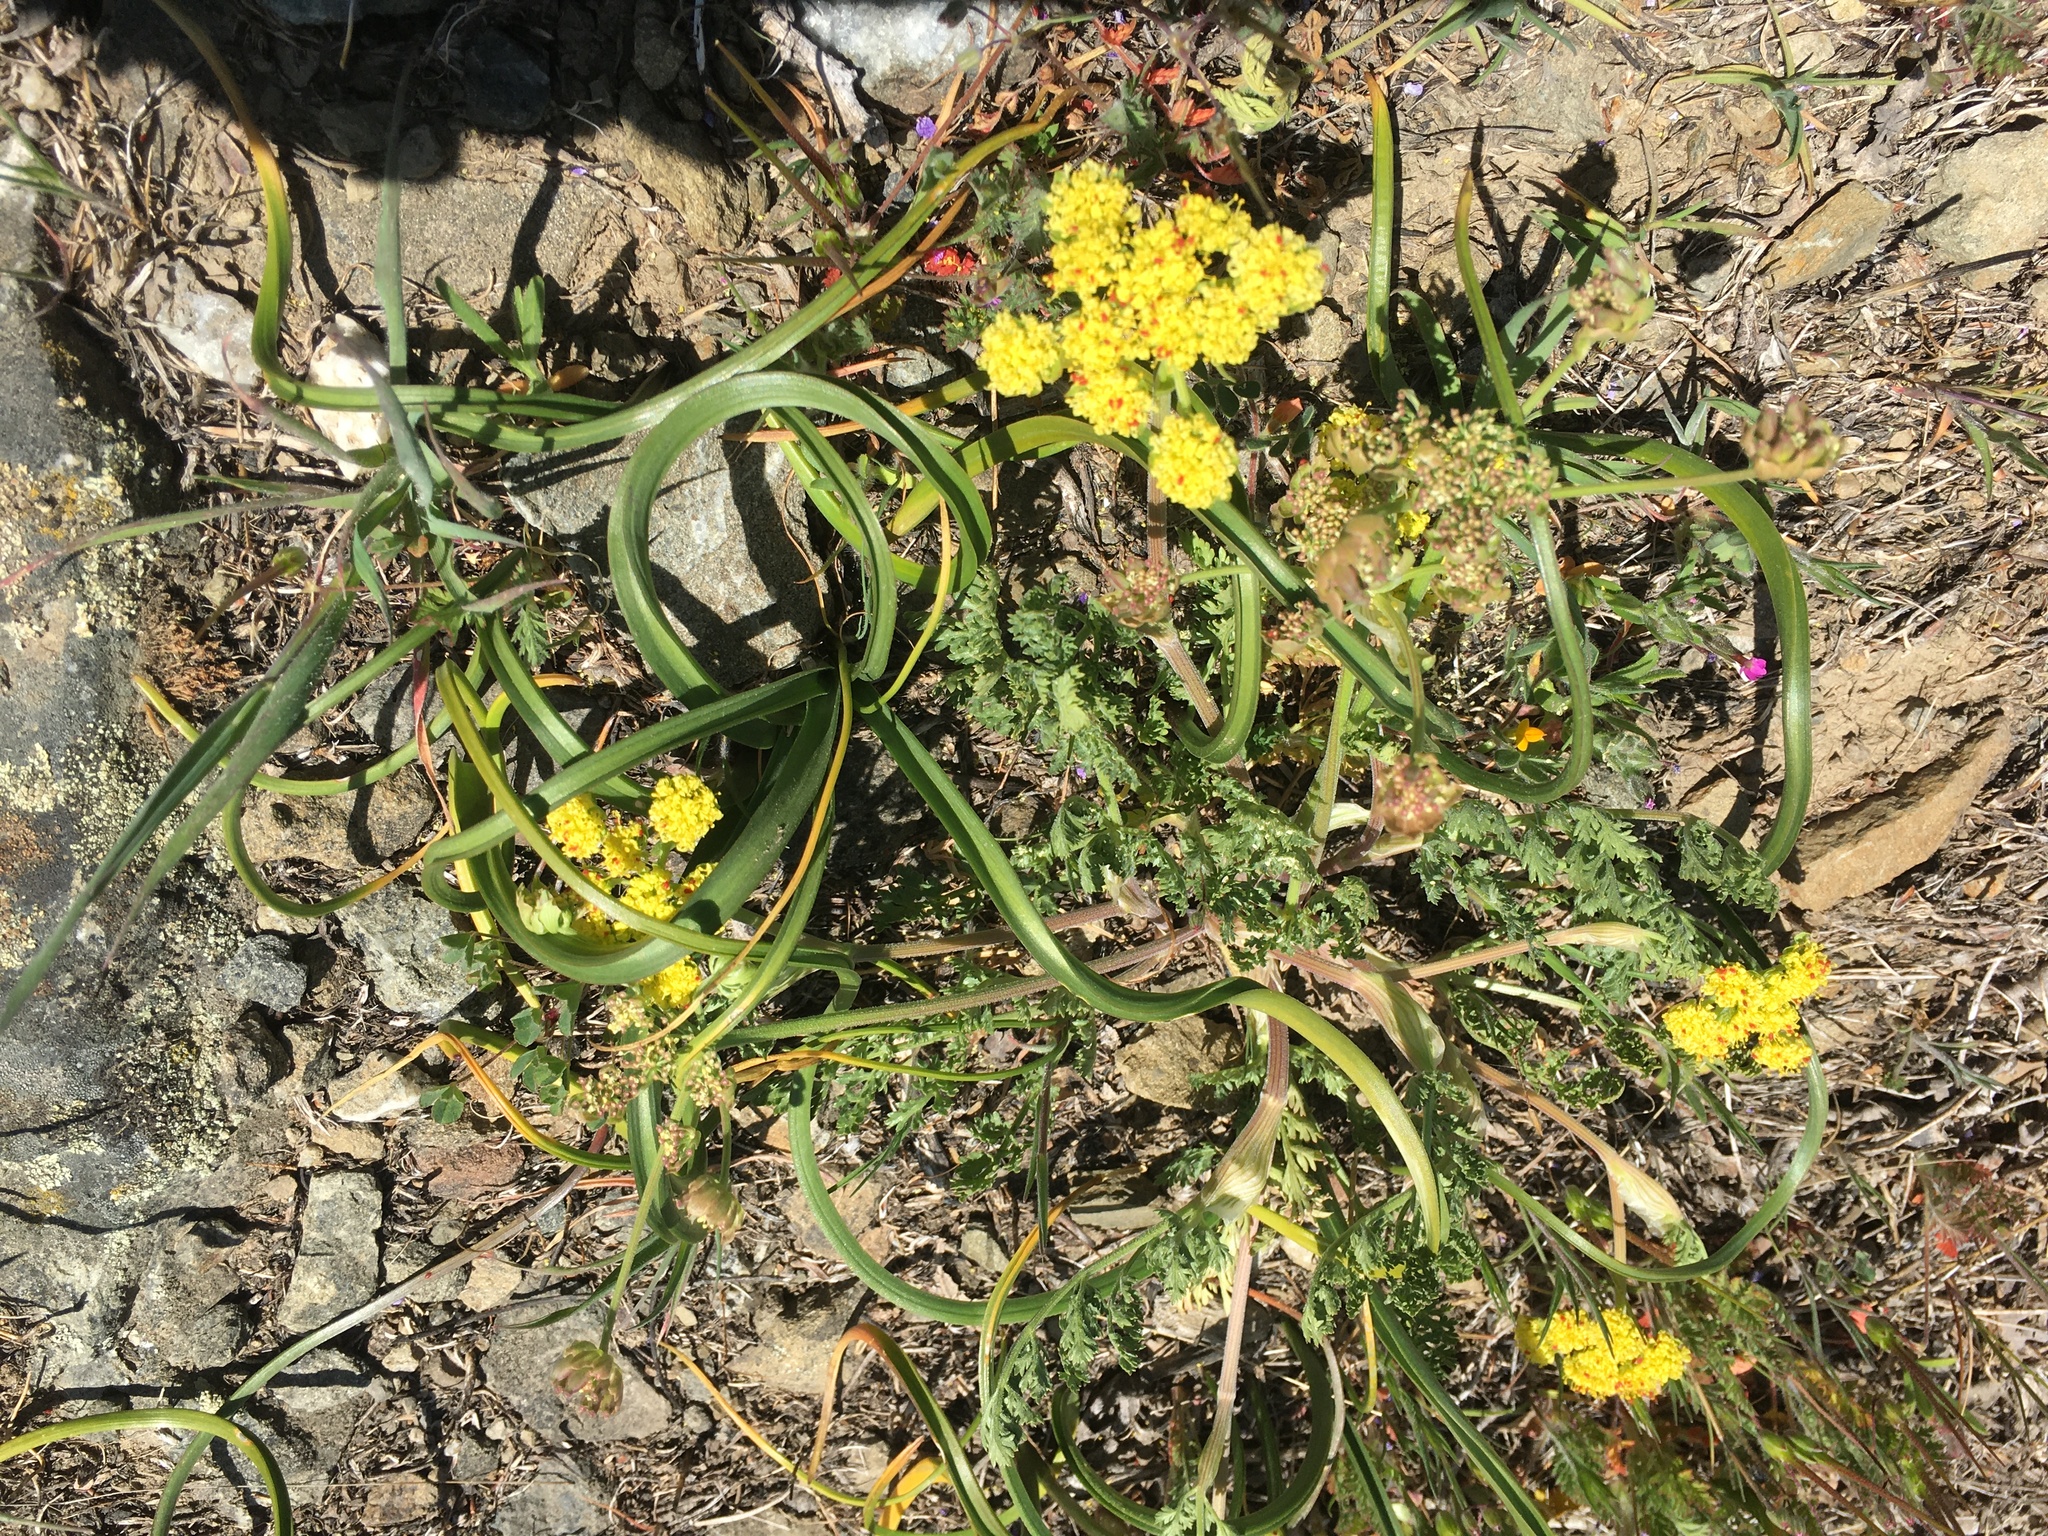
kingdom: Plantae
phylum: Tracheophyta
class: Magnoliopsida
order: Apiales
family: Apiaceae
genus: Lomatium
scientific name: Lomatium utriculatum
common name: Fine-leaf desert-parsley
